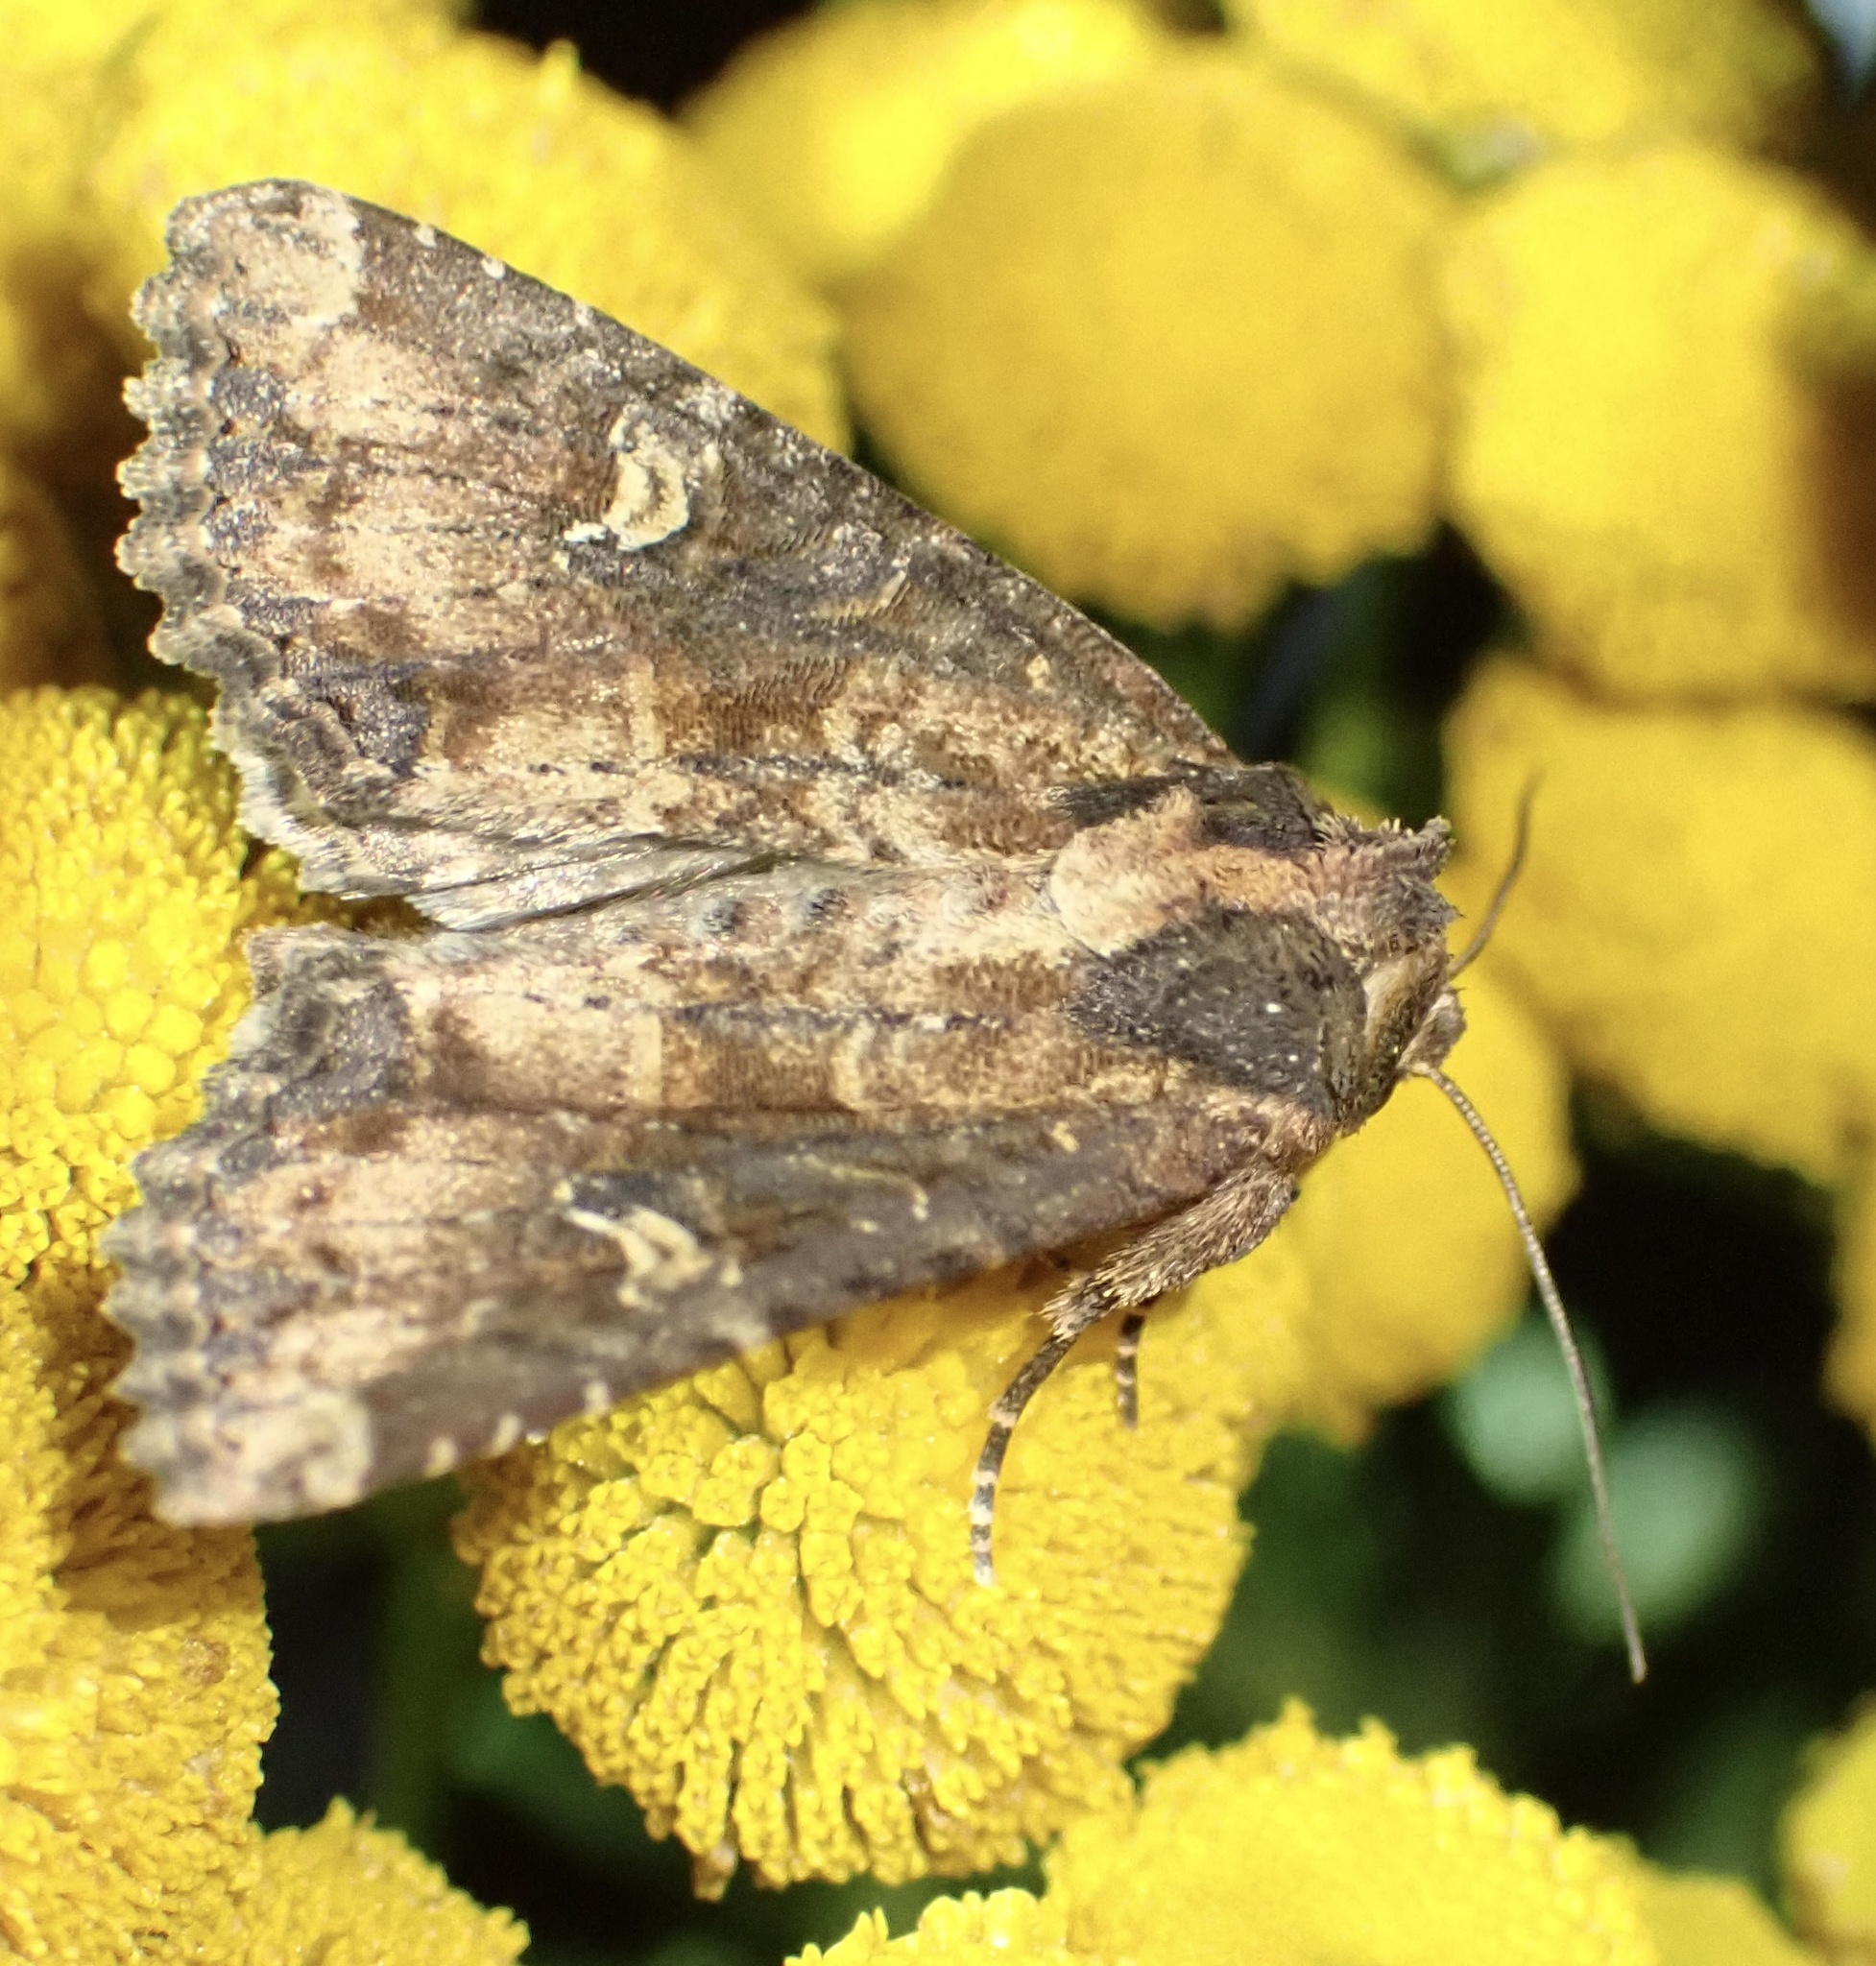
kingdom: Animalia
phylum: Arthropoda
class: Insecta
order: Lepidoptera
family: Noctuidae
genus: Mesapamea
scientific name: Mesapamea
